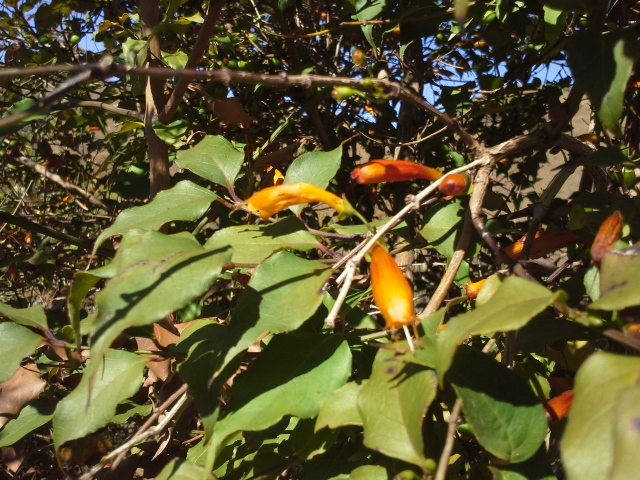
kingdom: Plantae
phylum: Tracheophyta
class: Magnoliopsida
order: Lamiales
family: Stilbaceae
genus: Halleria
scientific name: Halleria lucida
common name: Tree fuschia
